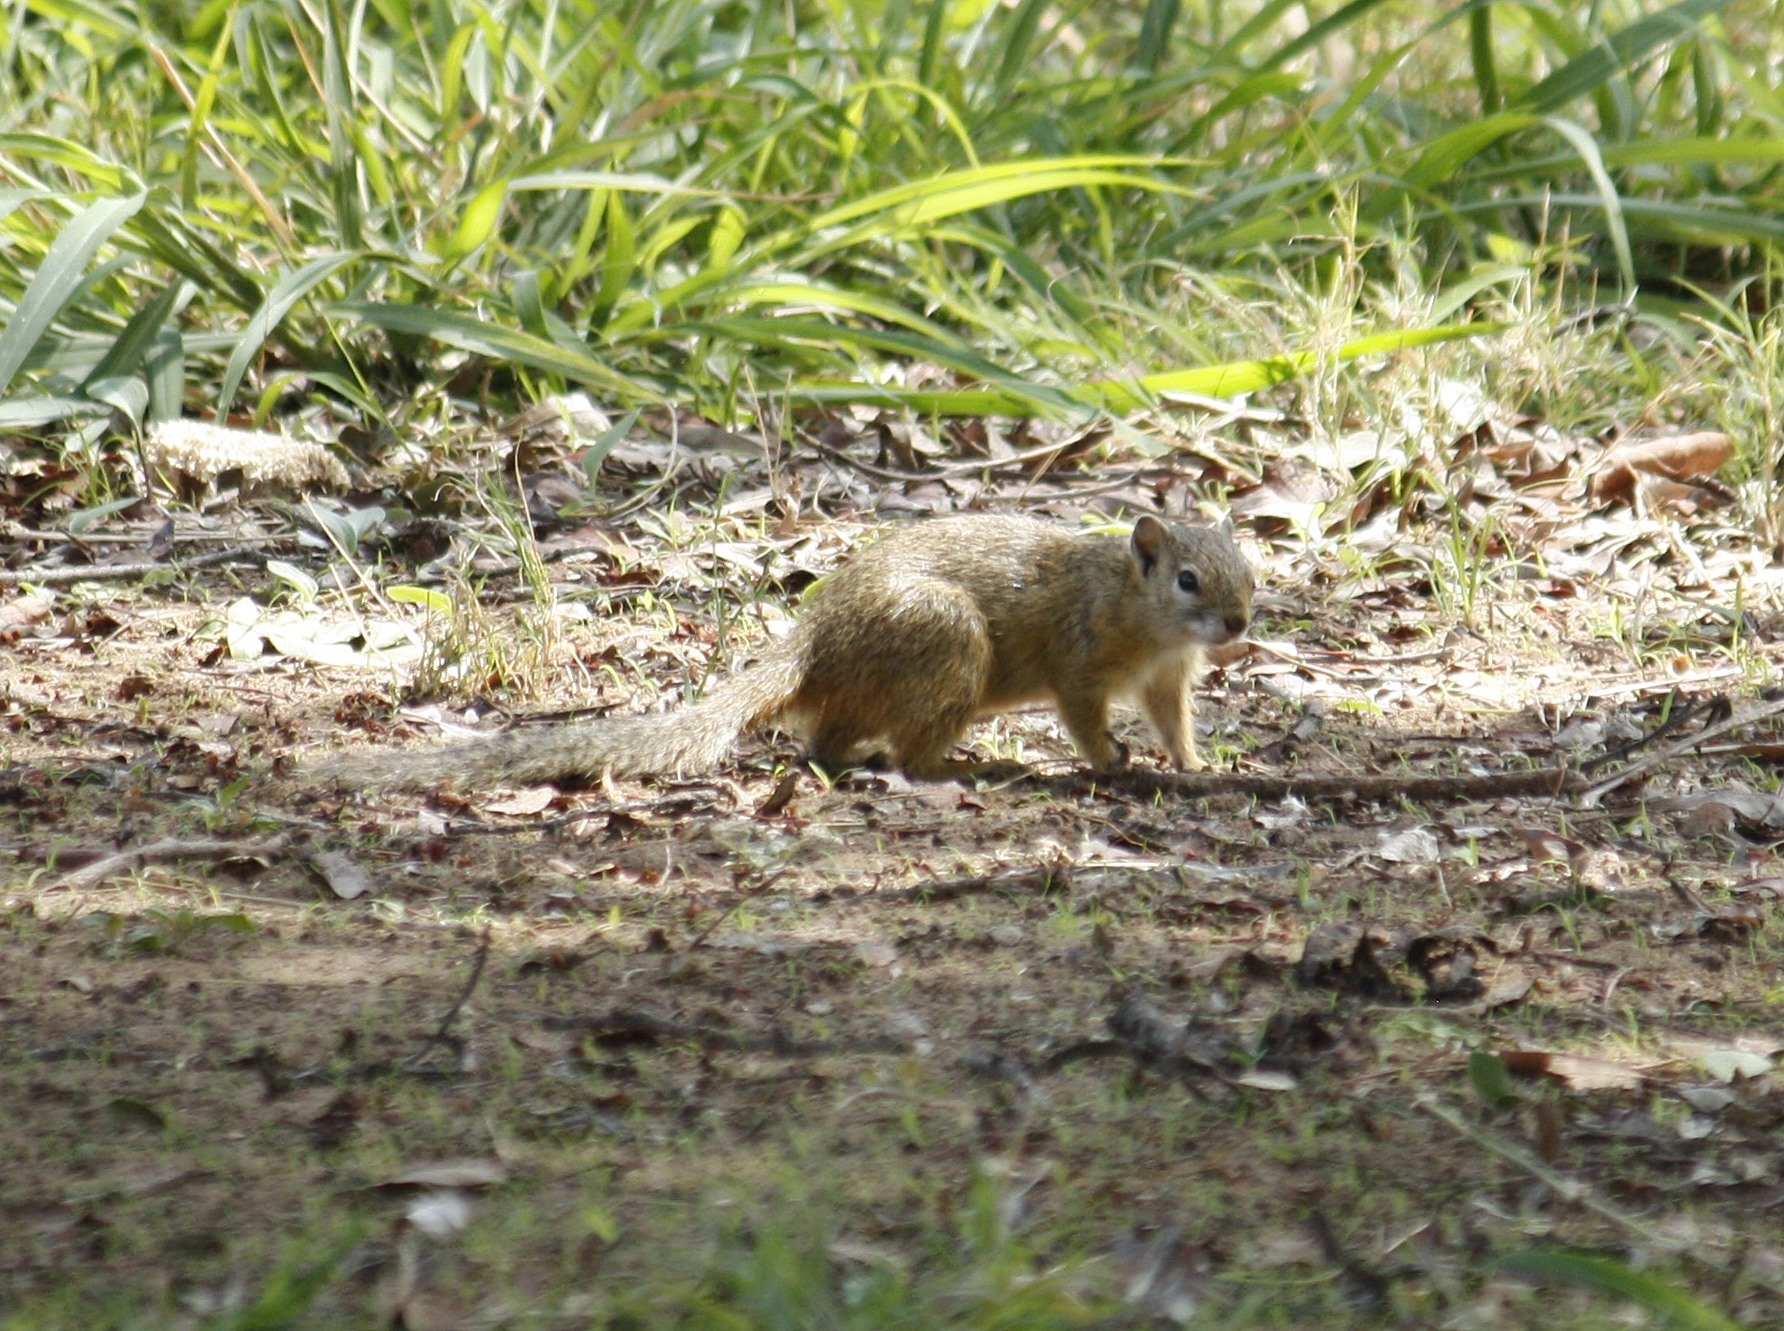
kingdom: Animalia
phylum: Chordata
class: Mammalia
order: Rodentia
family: Sciuridae
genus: Paraxerus
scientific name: Paraxerus cepapi
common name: Smith's bush squirrel
